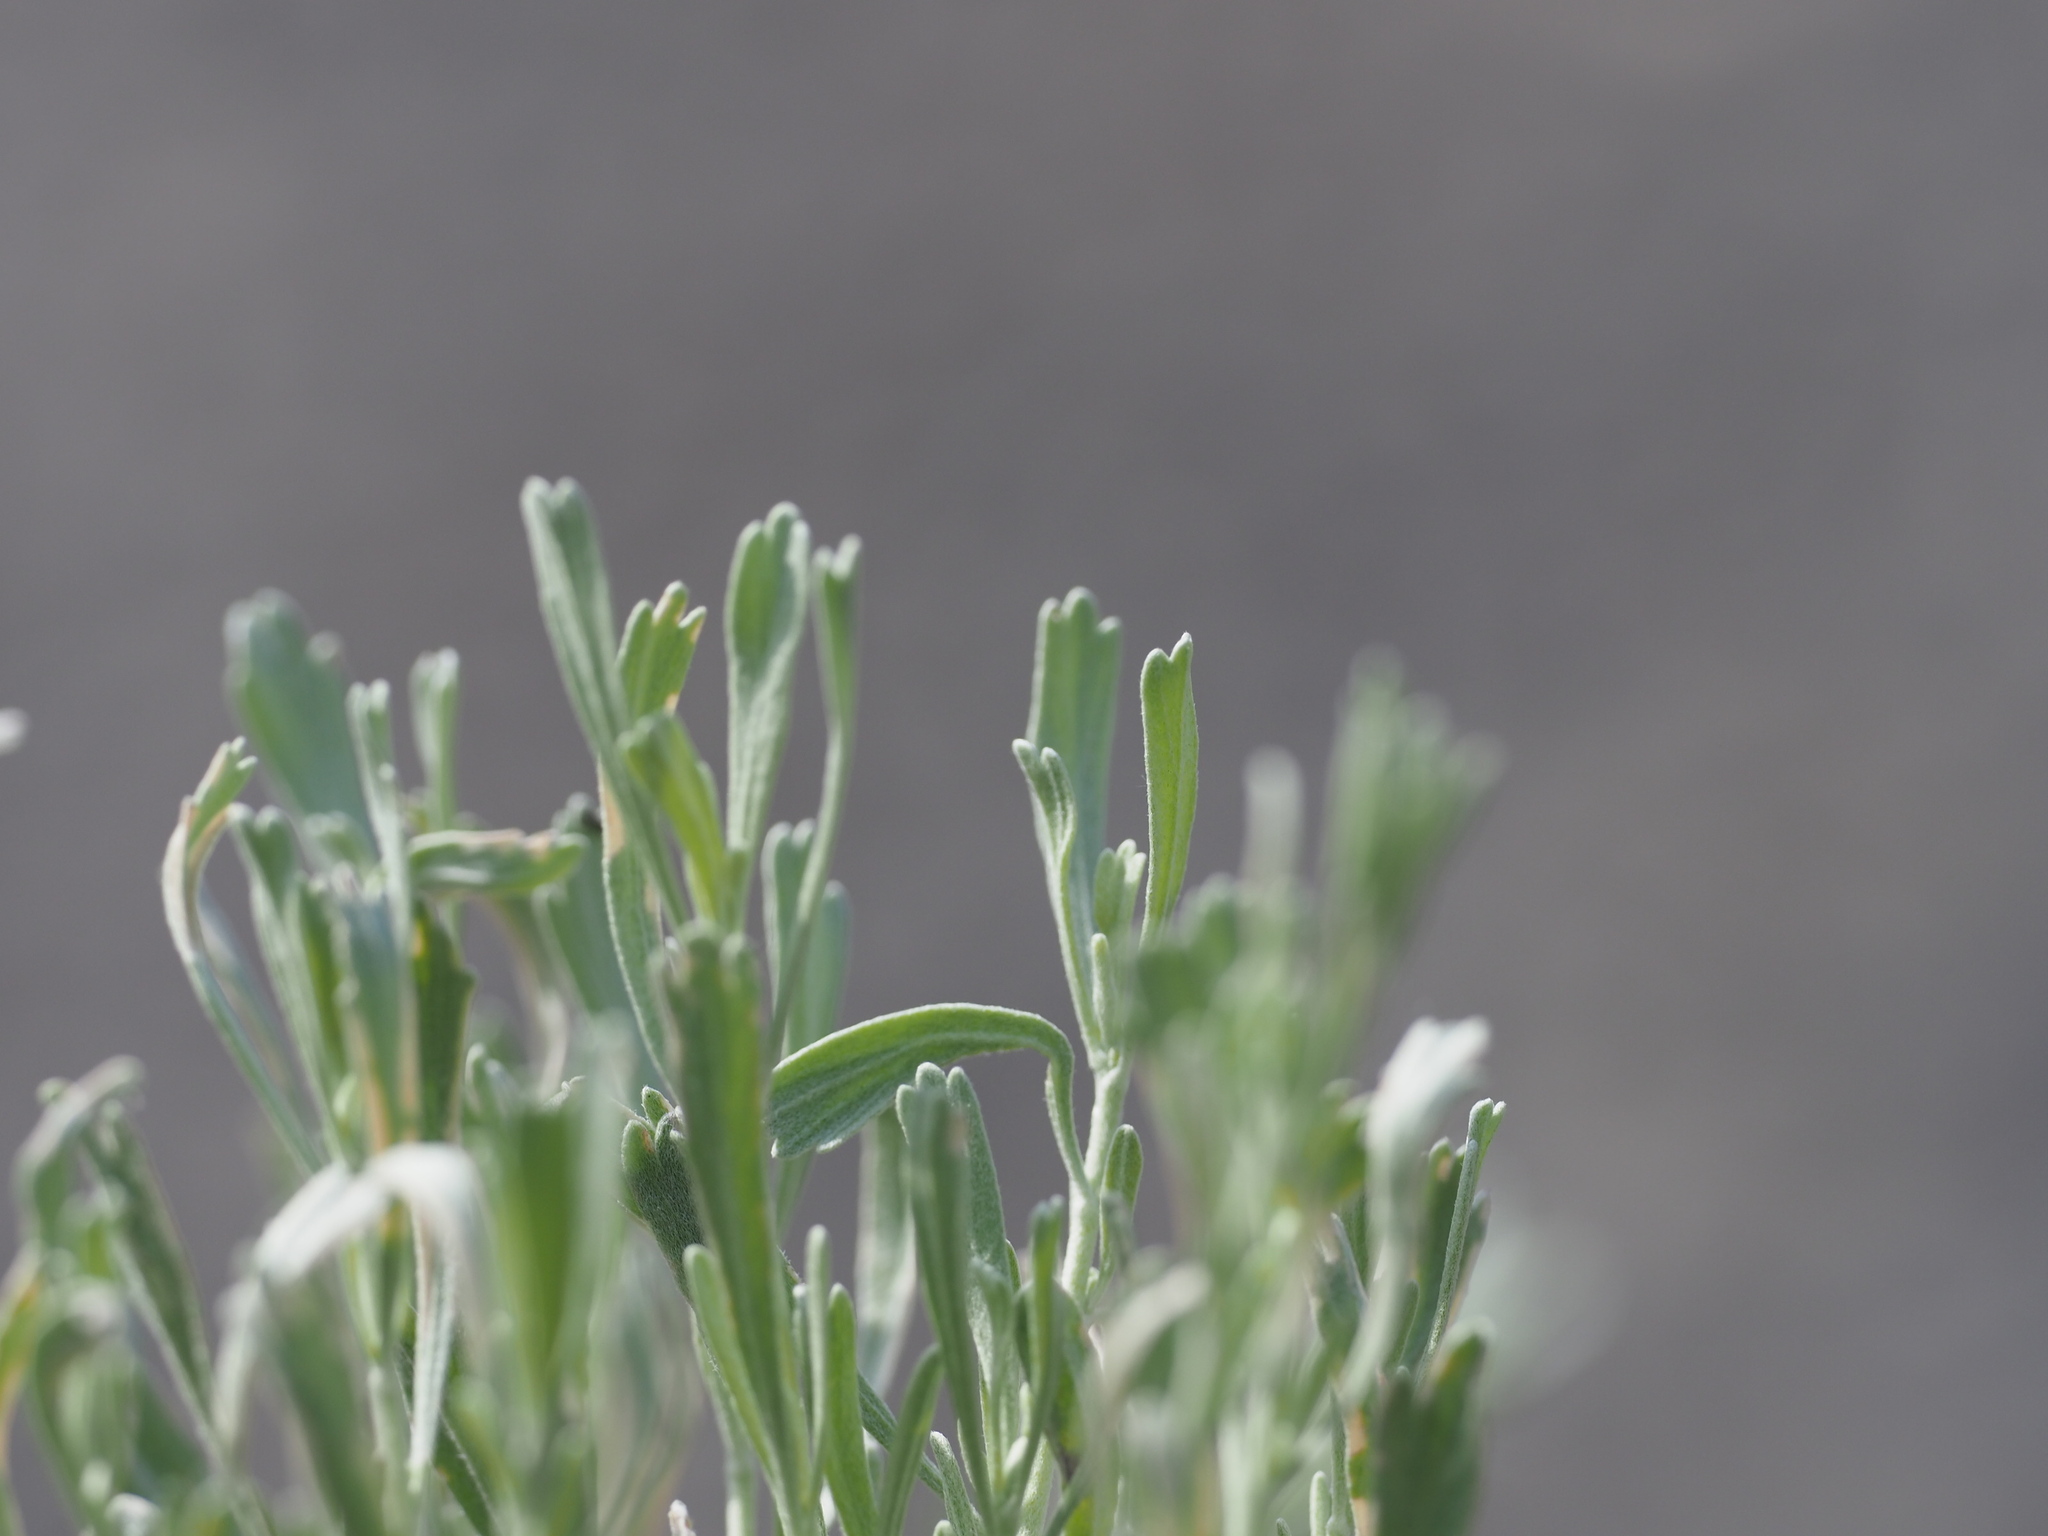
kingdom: Plantae
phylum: Tracheophyta
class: Magnoliopsida
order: Asterales
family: Asteraceae
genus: Artemisia
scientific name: Artemisia tridentata
